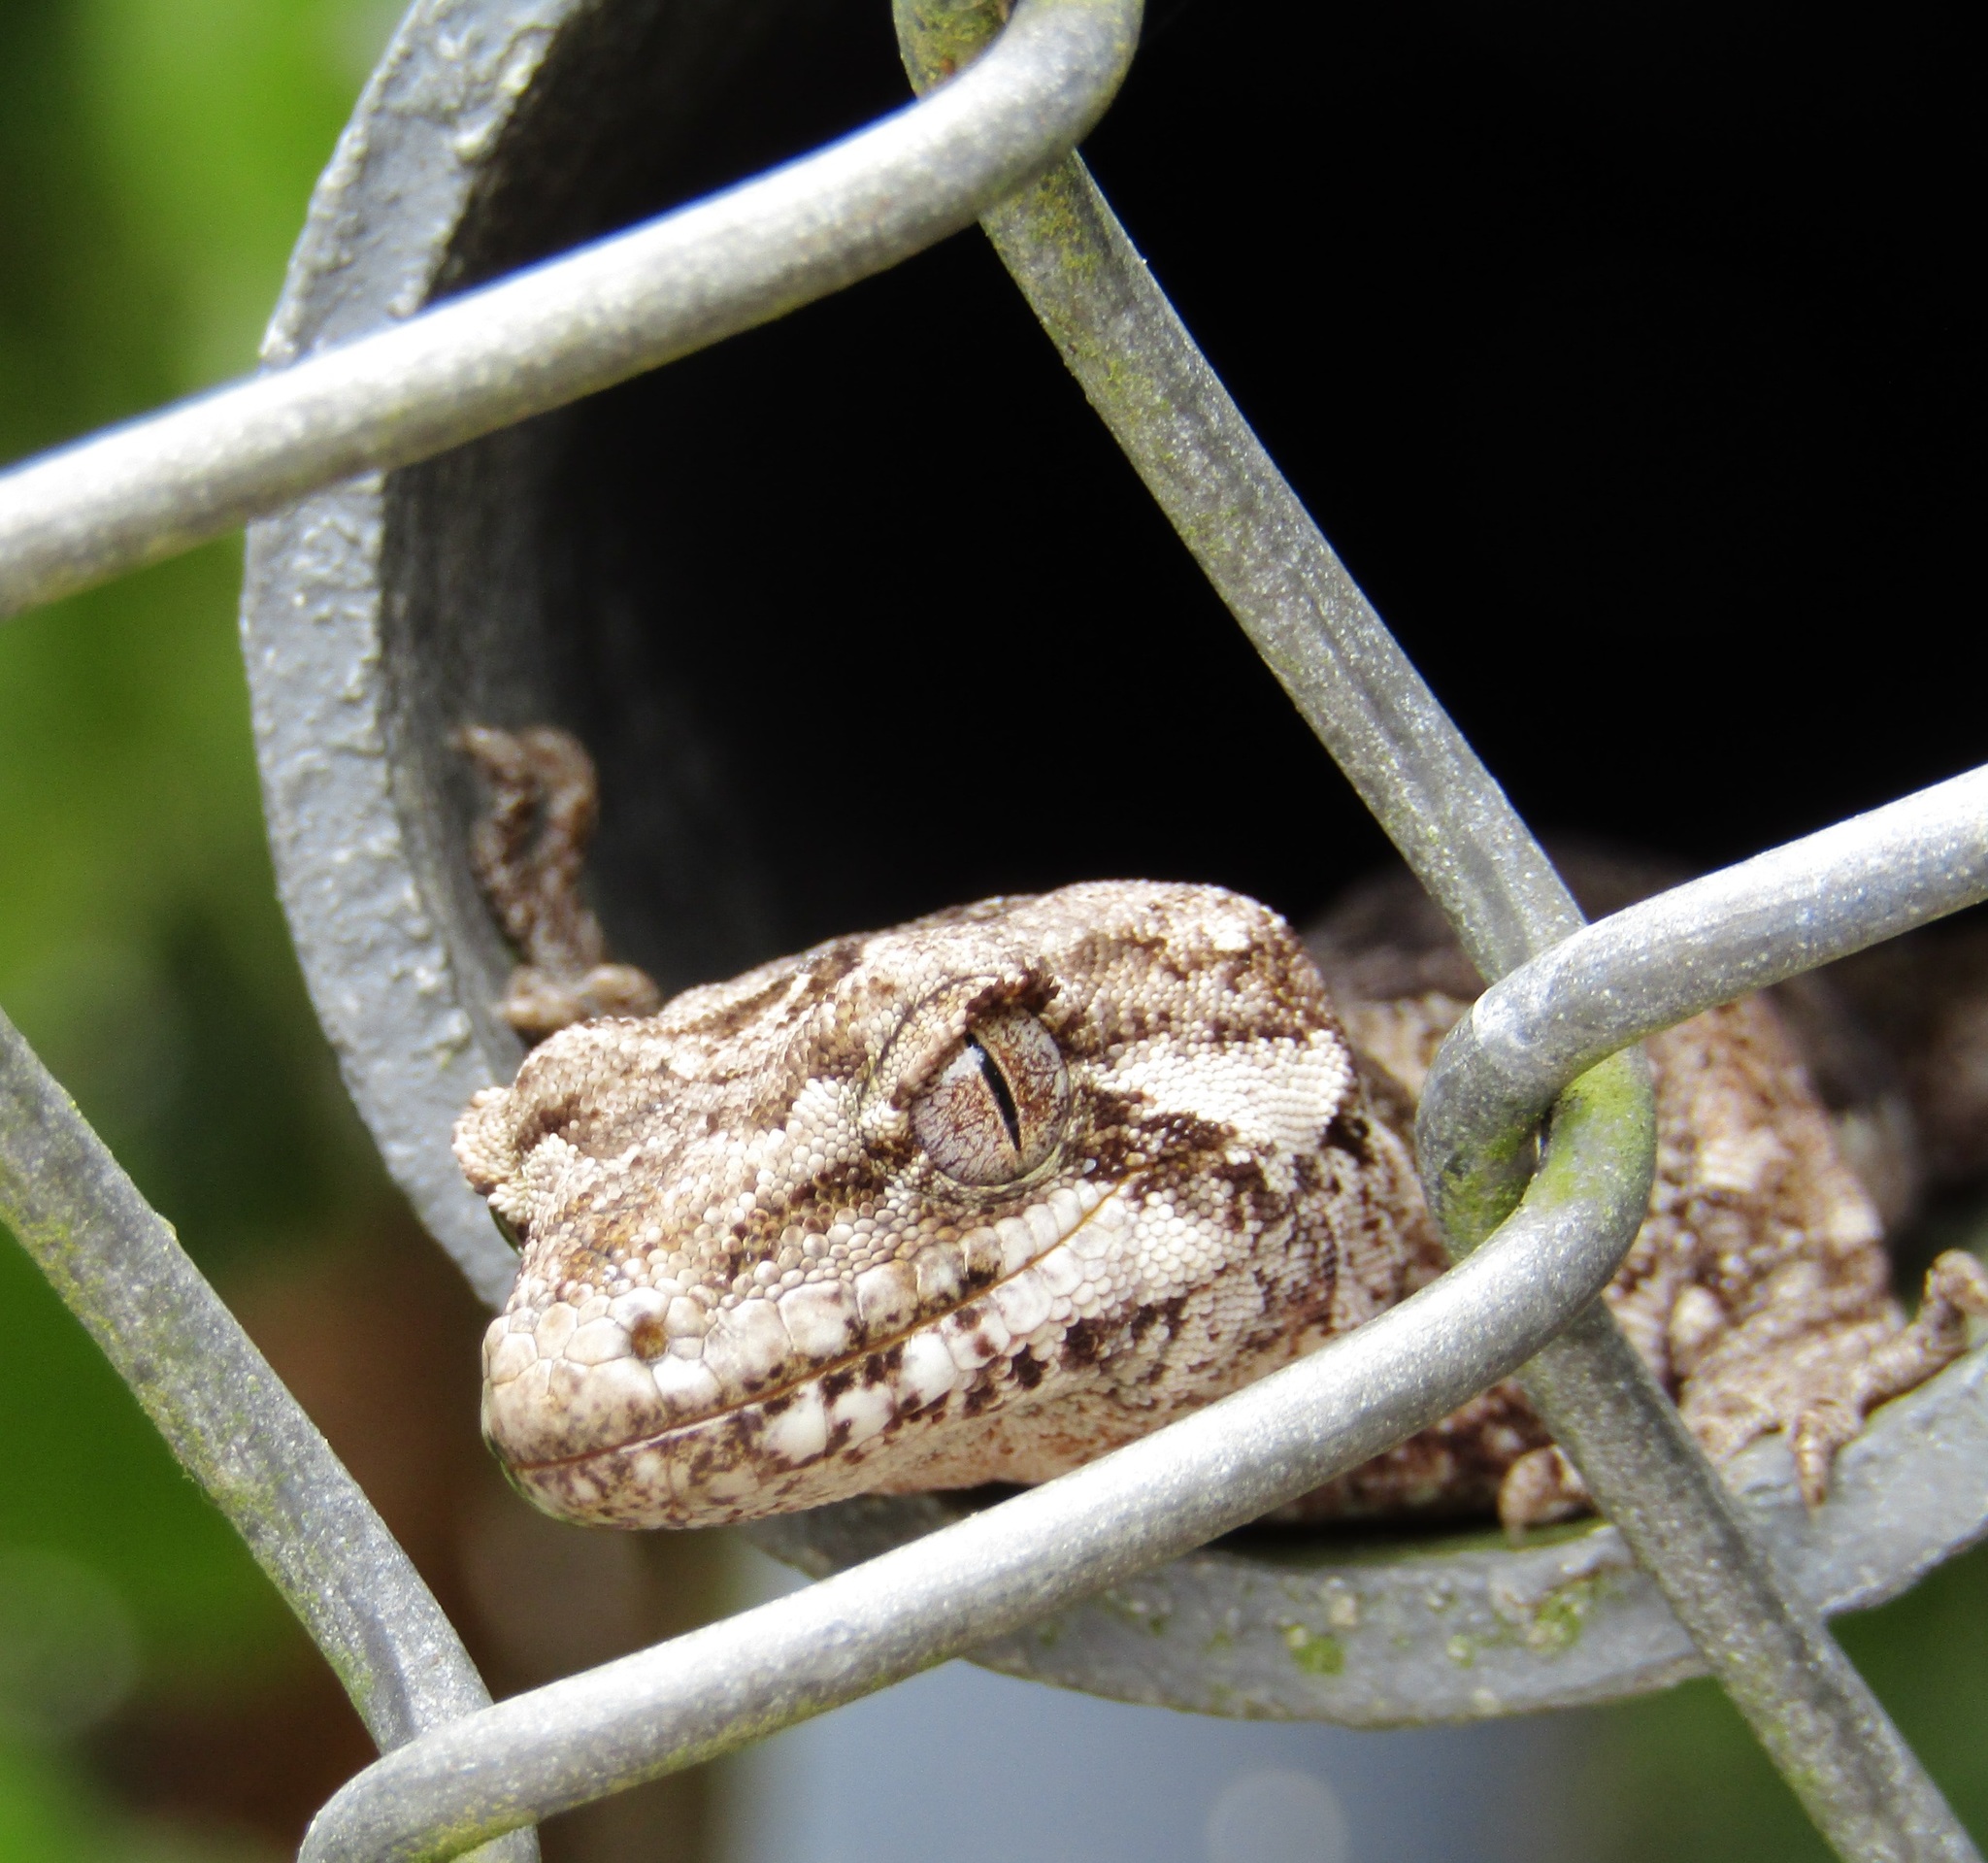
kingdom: Animalia
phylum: Chordata
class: Squamata
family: Diplodactylidae
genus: Mokopirirakau
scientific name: Mokopirirakau
